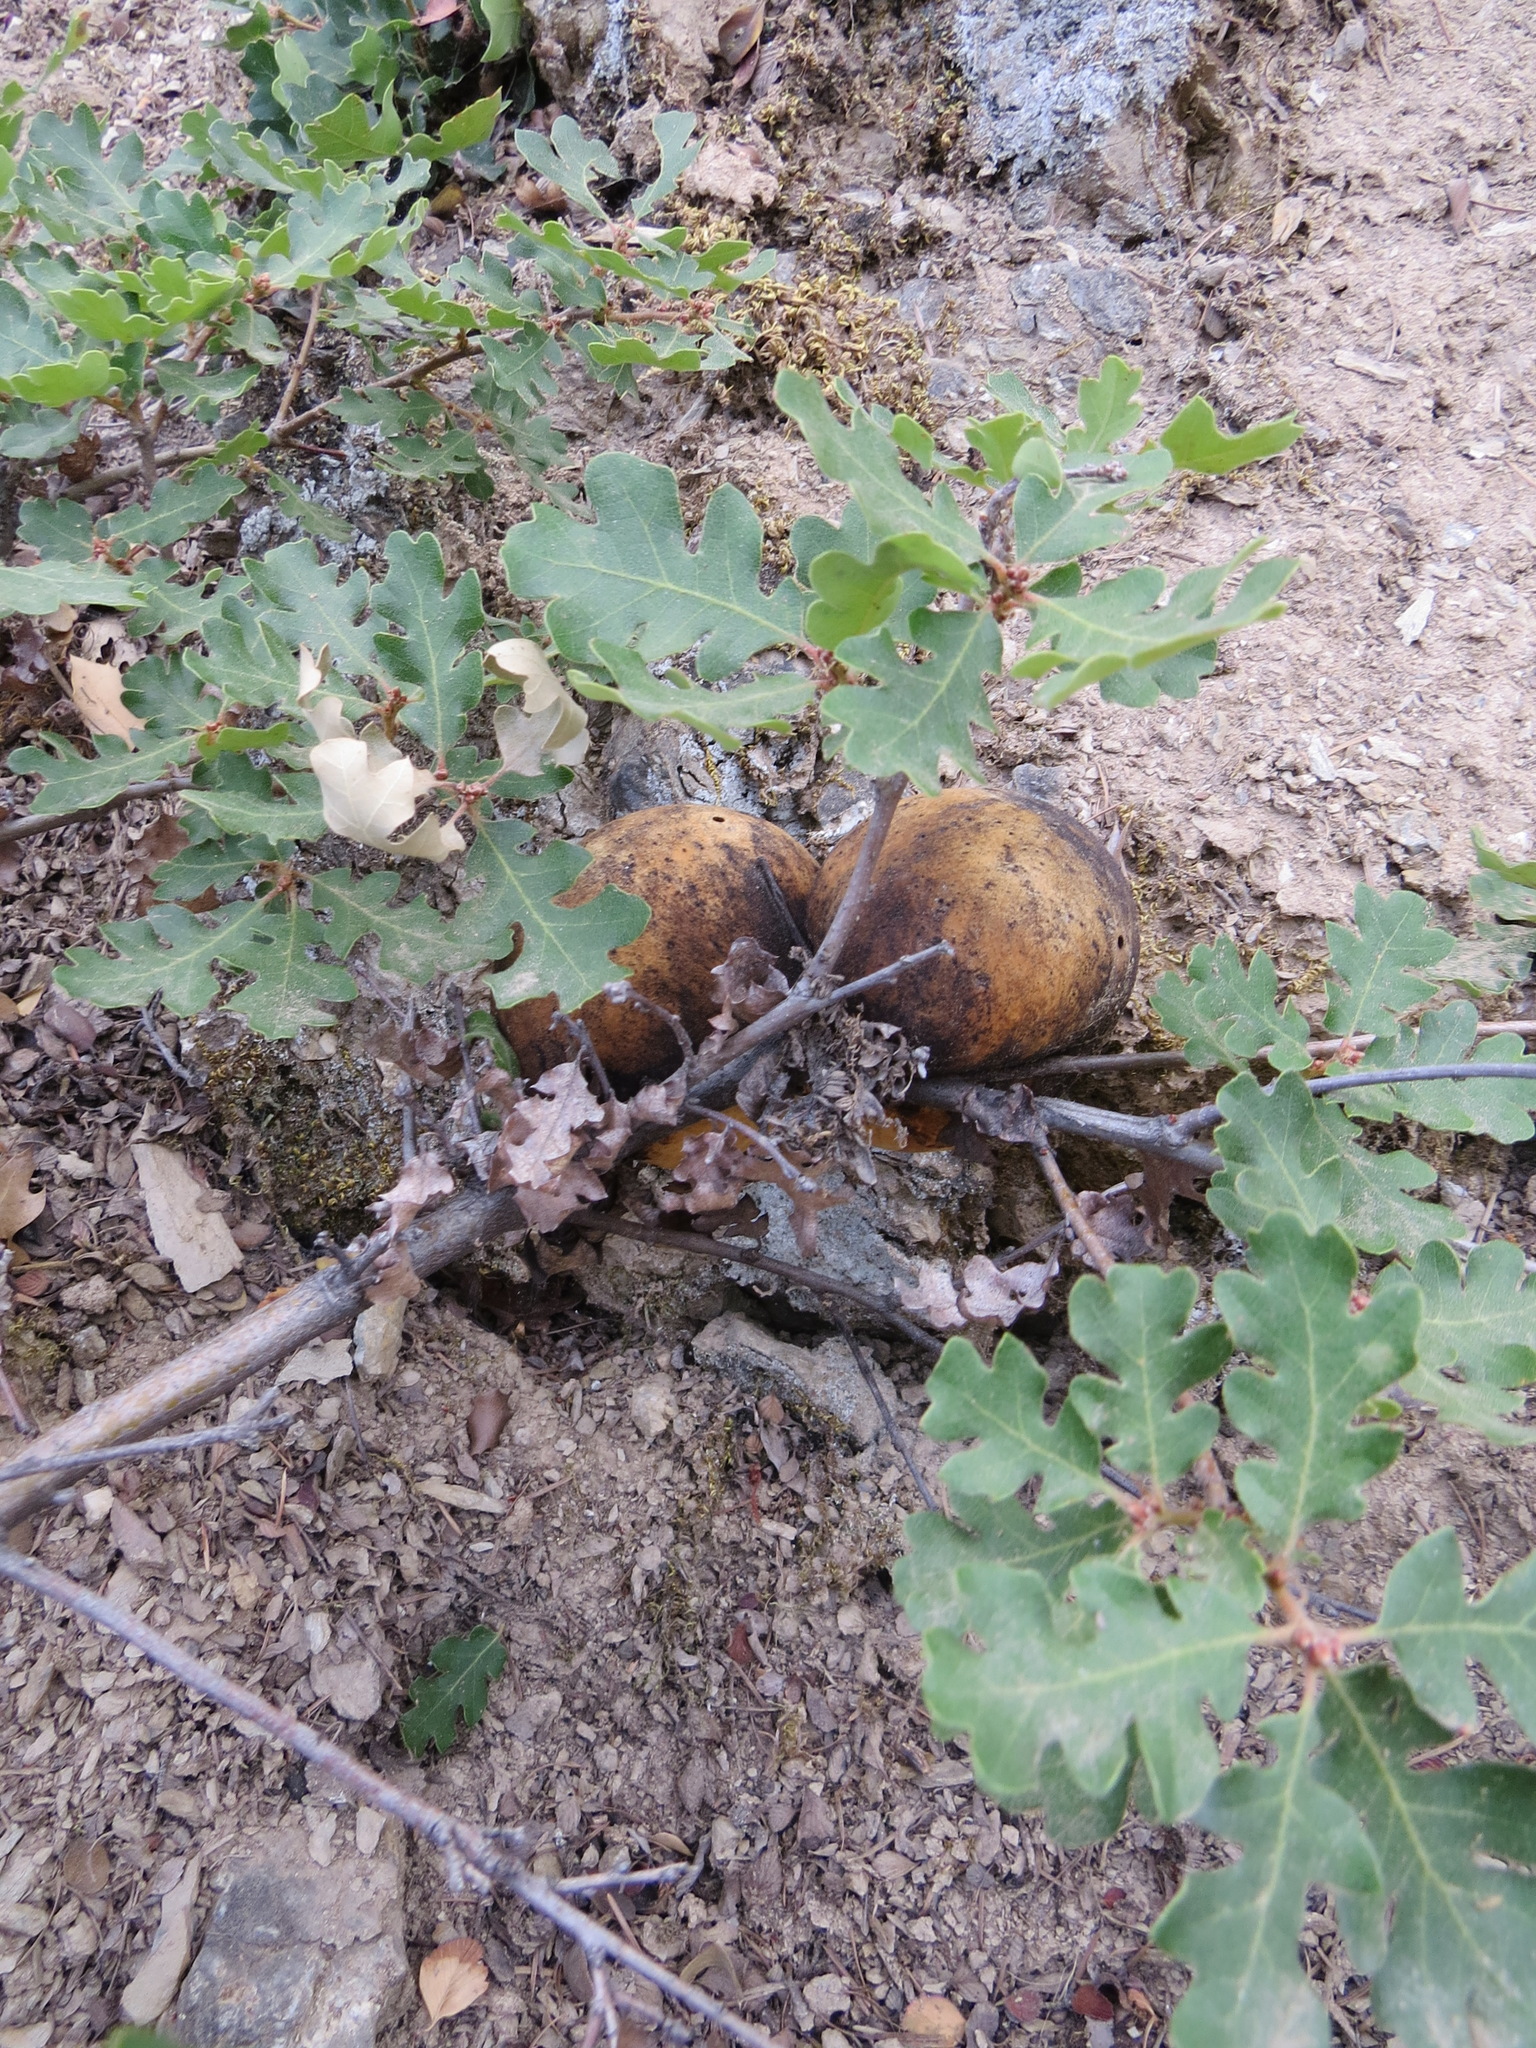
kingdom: Animalia
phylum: Arthropoda
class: Insecta
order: Hymenoptera
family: Cynipidae
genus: Andricus
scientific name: Andricus quercuscalifornicus
